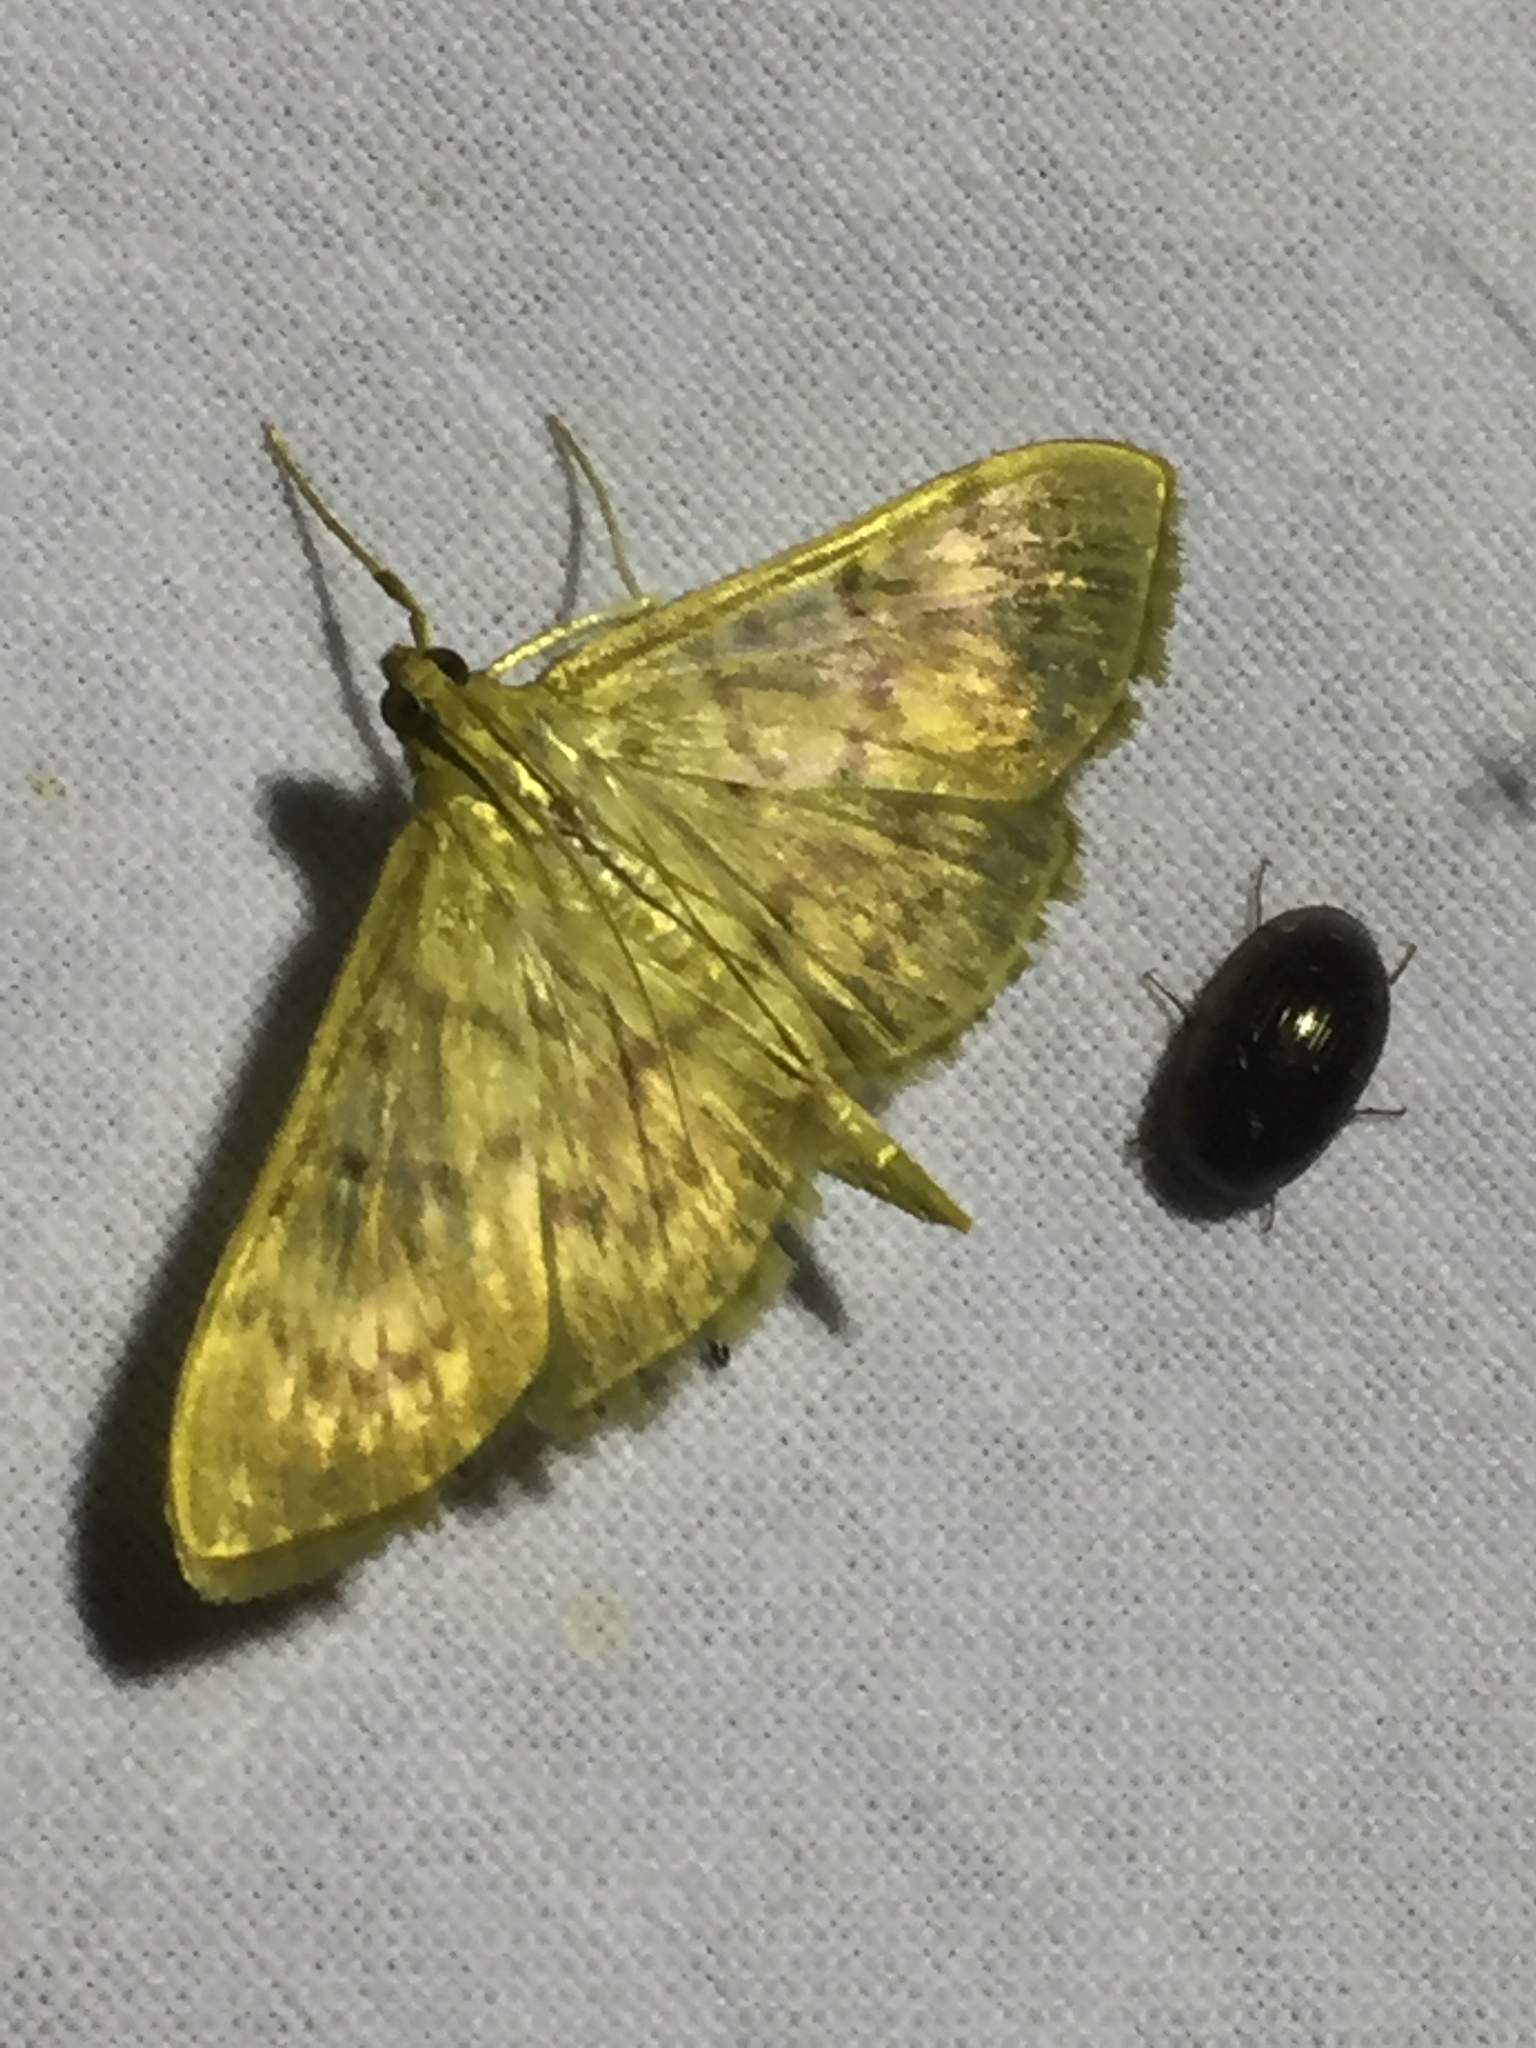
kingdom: Animalia
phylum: Arthropoda
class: Insecta
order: Lepidoptera
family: Crambidae
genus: Patania
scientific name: Patania ruralis
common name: Mother of pearl
